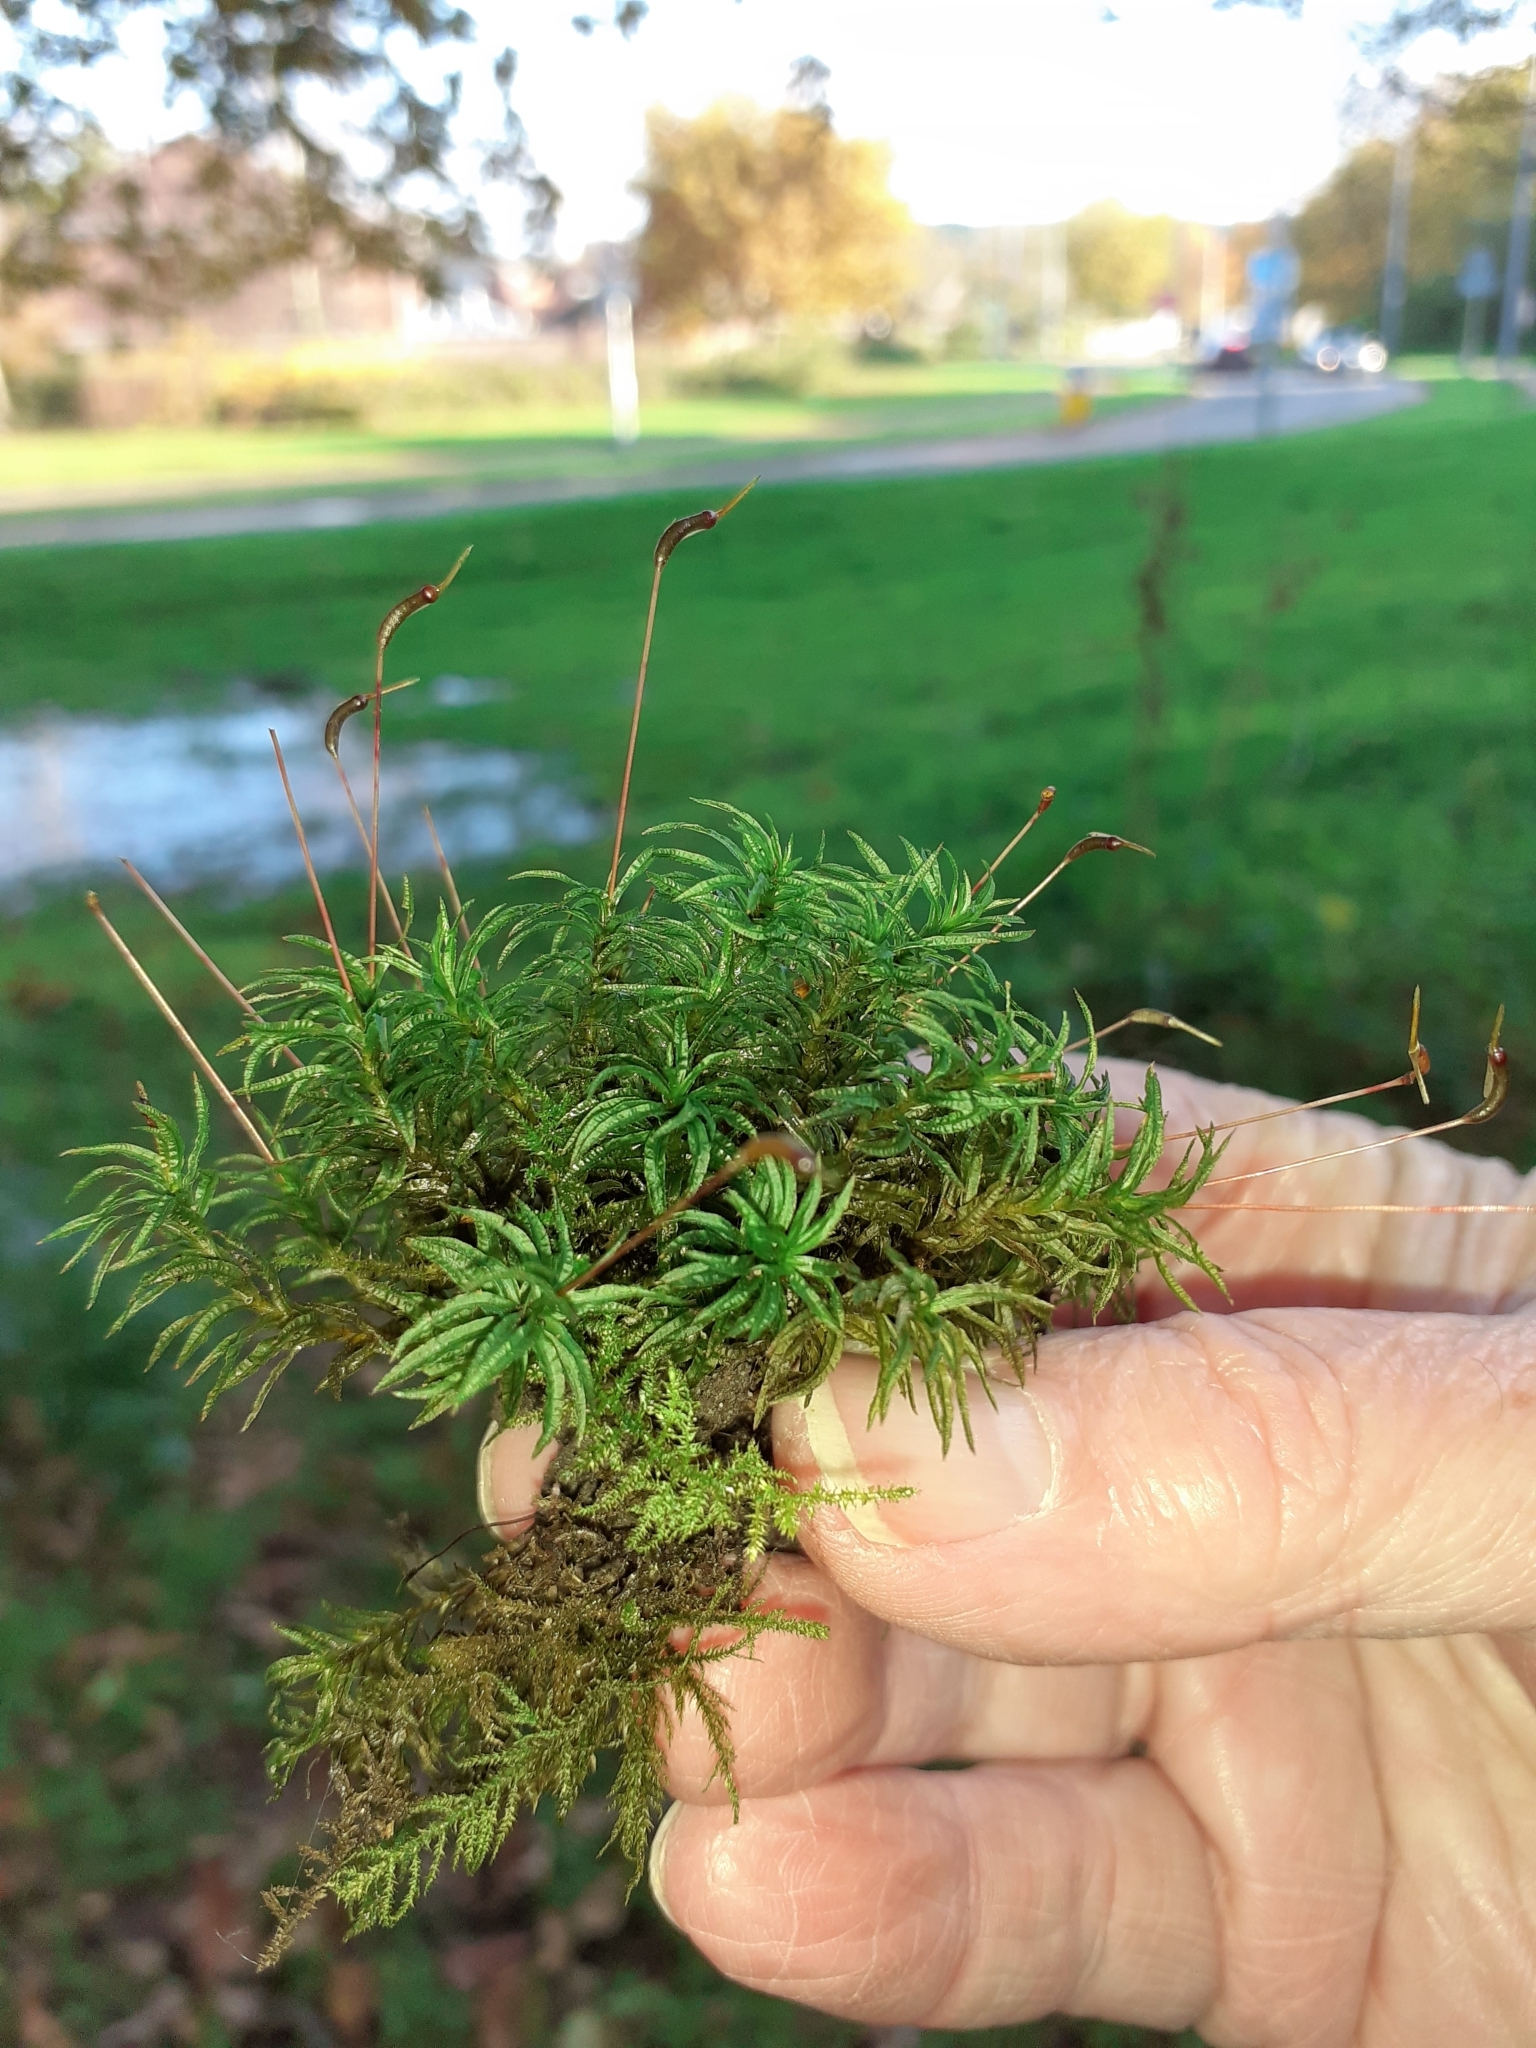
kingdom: Plantae
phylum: Bryophyta
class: Polytrichopsida
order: Polytrichales
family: Polytrichaceae
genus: Atrichum
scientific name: Atrichum undulatum
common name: Common smoothcap
